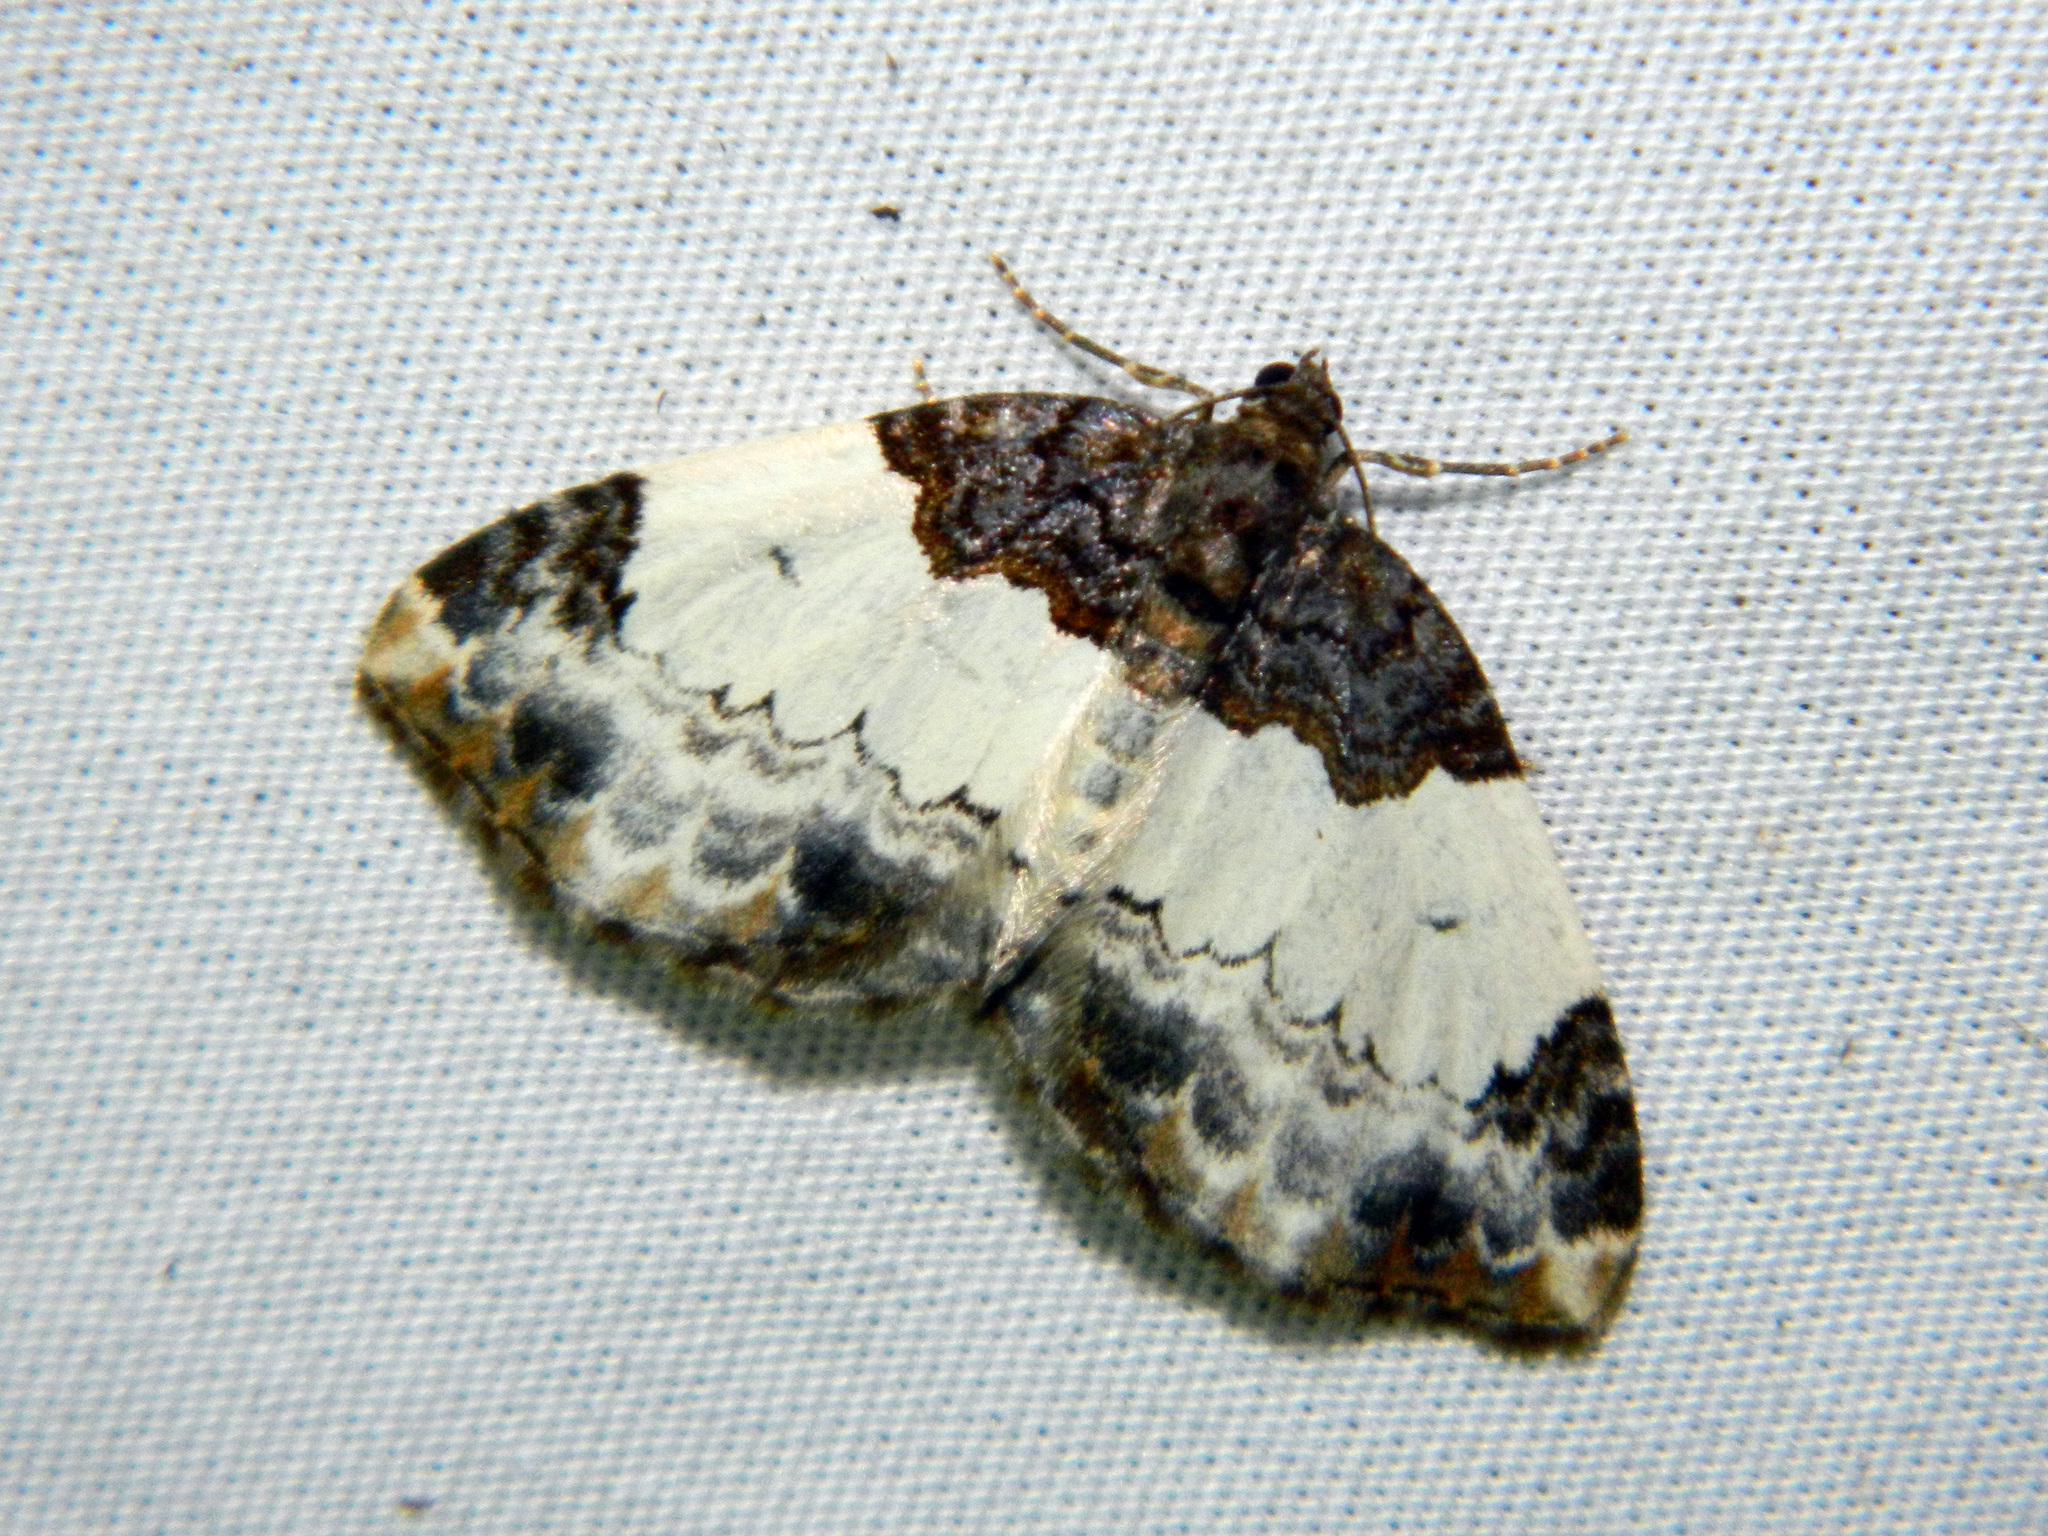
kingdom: Animalia
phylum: Arthropoda
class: Insecta
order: Lepidoptera
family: Geometridae
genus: Mesoleuca
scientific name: Mesoleuca ruficillata
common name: White-ribboned carpet moth
